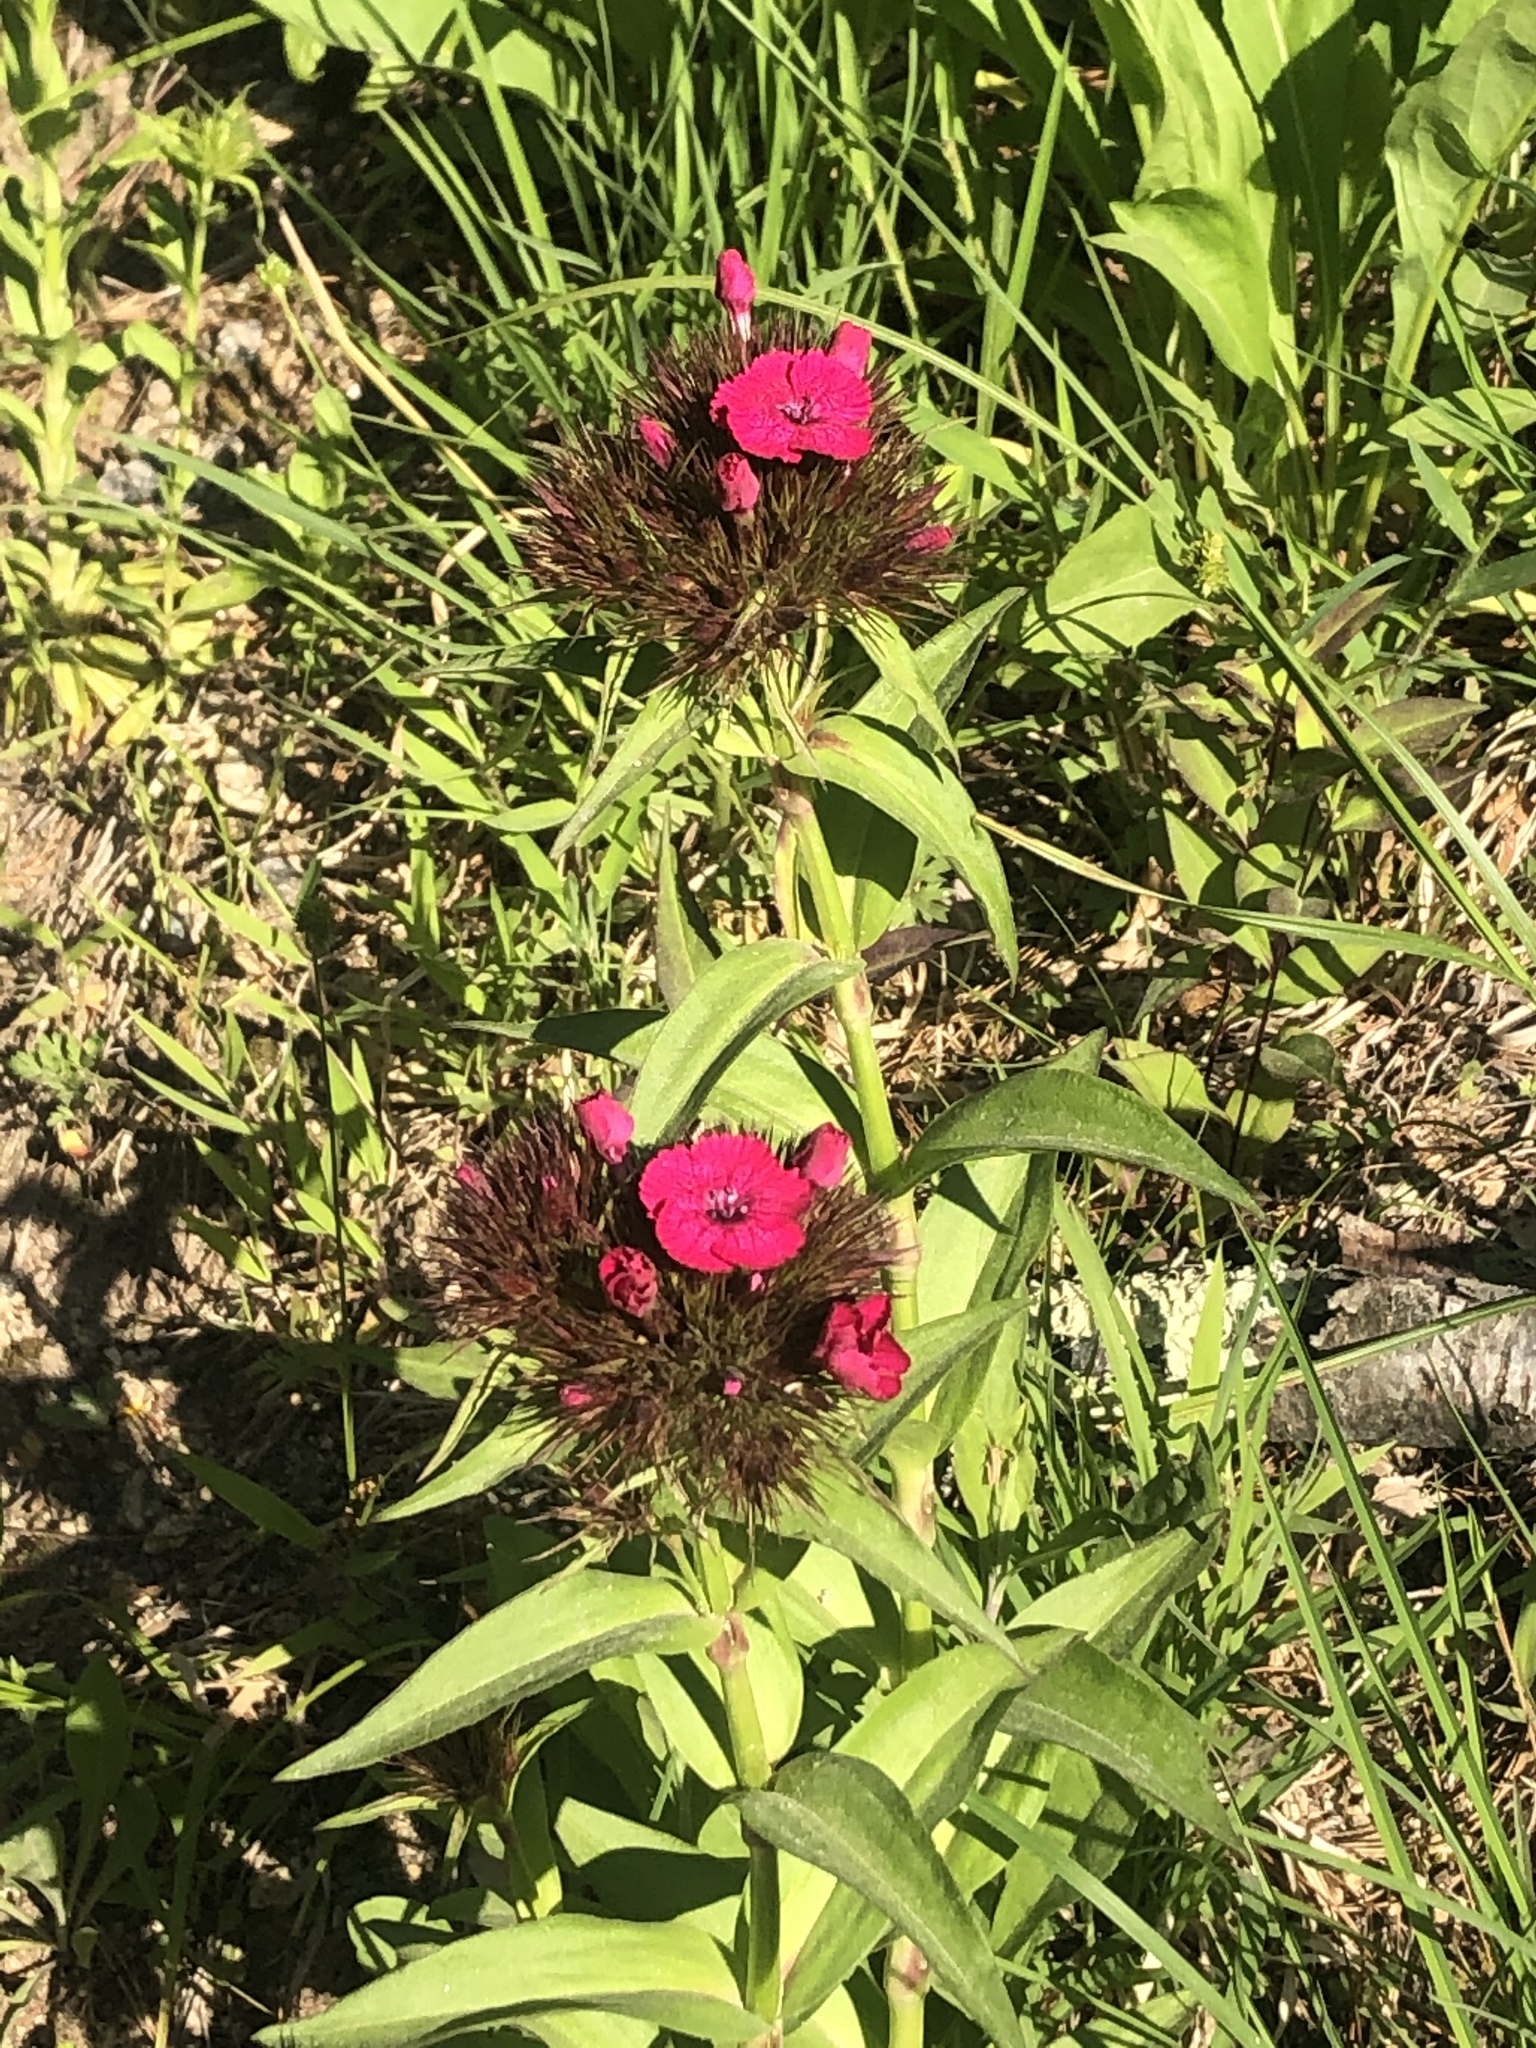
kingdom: Plantae
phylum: Tracheophyta
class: Magnoliopsida
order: Caryophyllales
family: Caryophyllaceae
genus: Dianthus
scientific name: Dianthus barbatus
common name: Sweet-william
